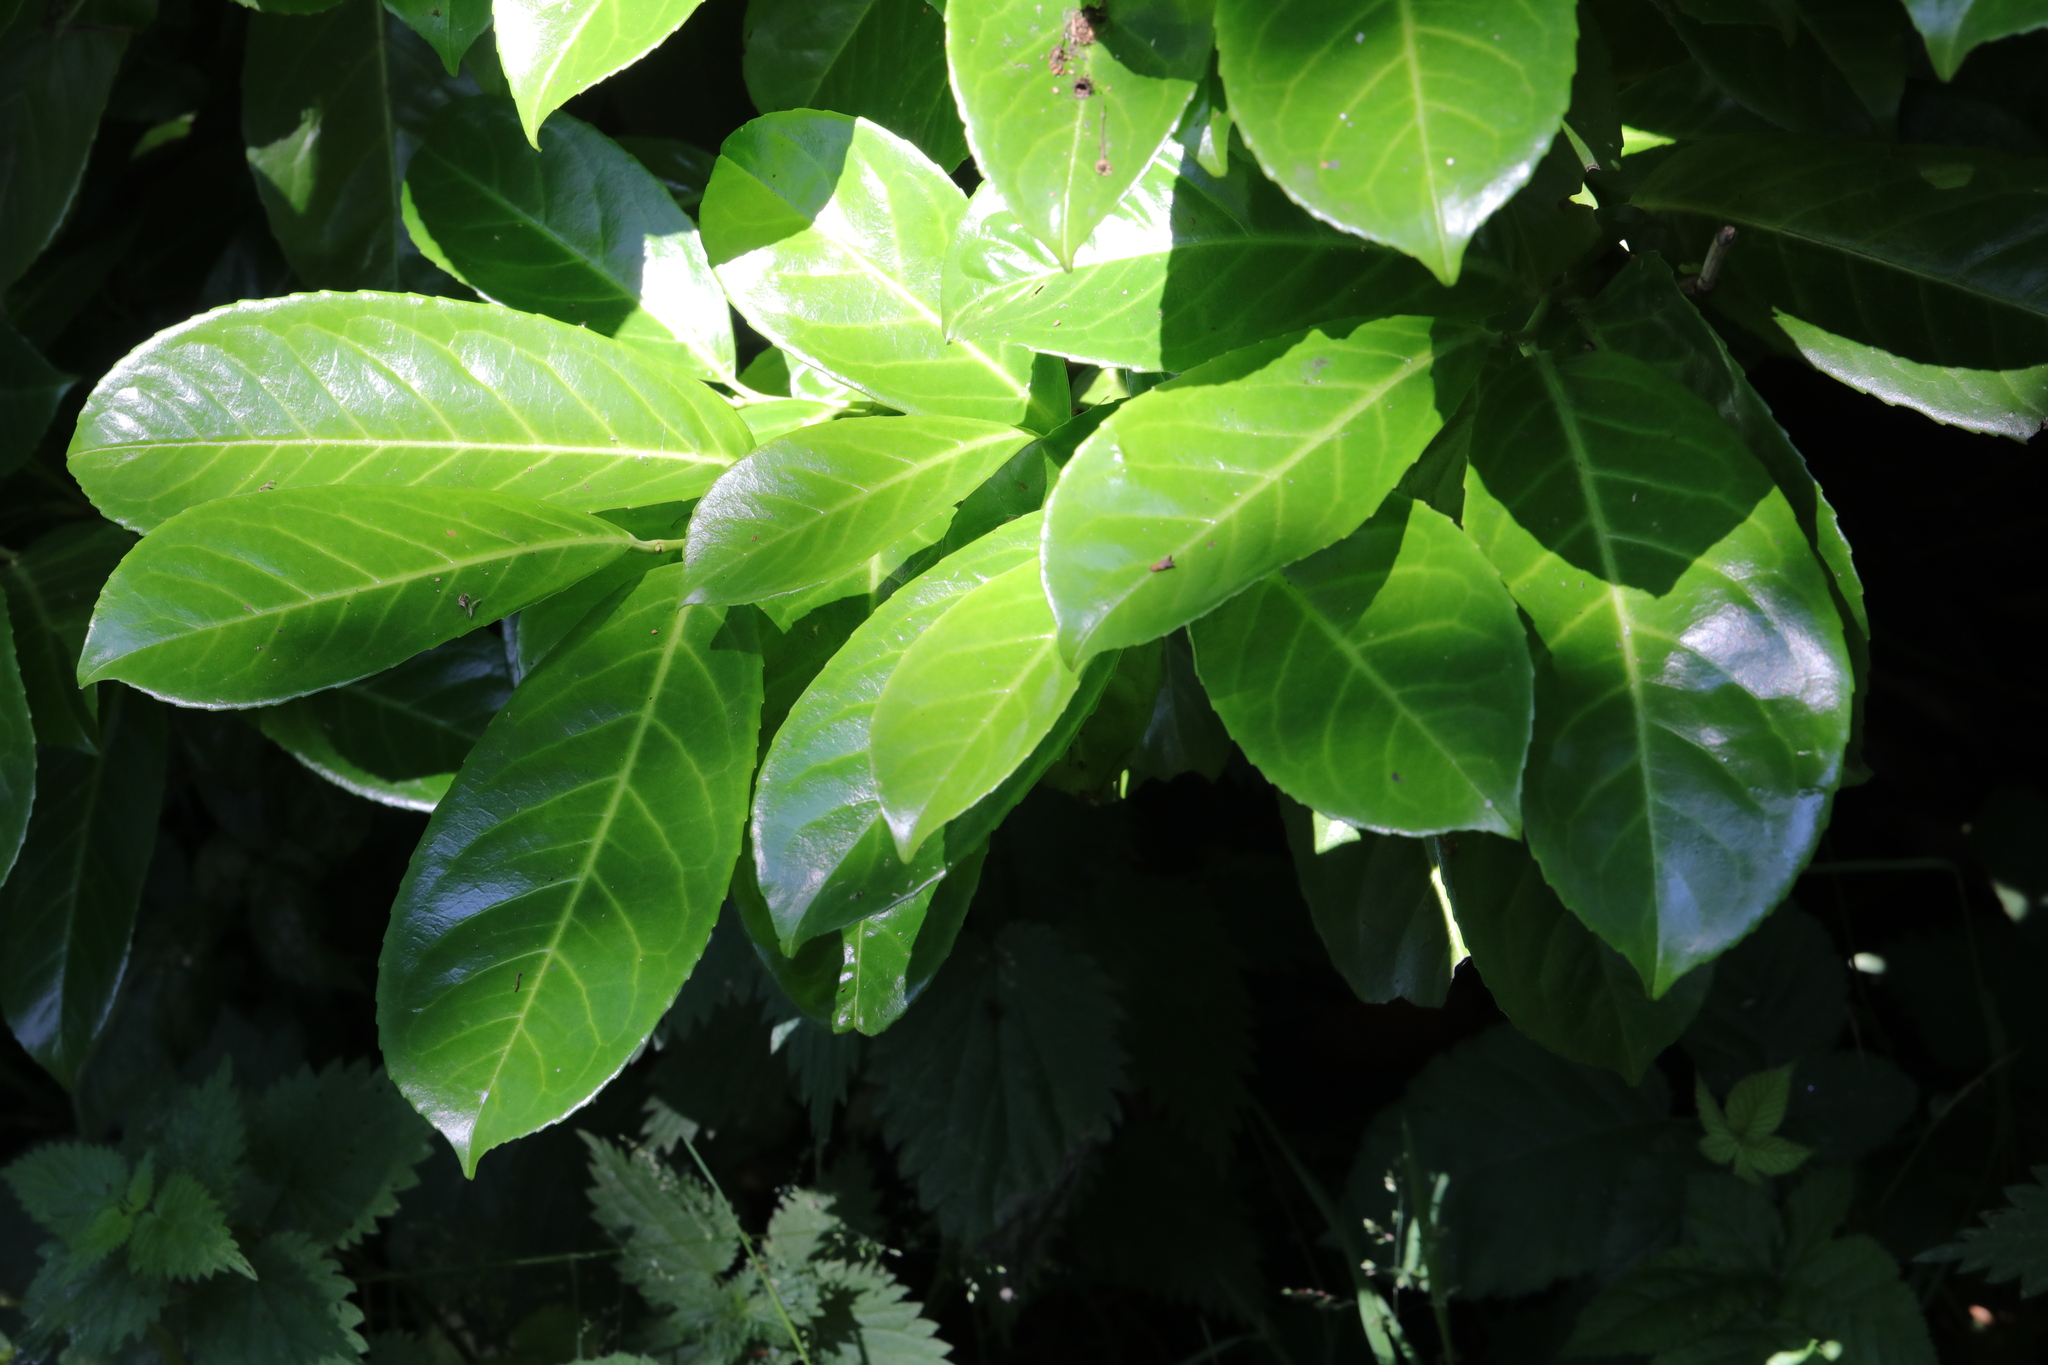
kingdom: Plantae
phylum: Tracheophyta
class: Magnoliopsida
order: Rosales
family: Rosaceae
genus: Prunus
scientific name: Prunus laurocerasus
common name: Cherry laurel
